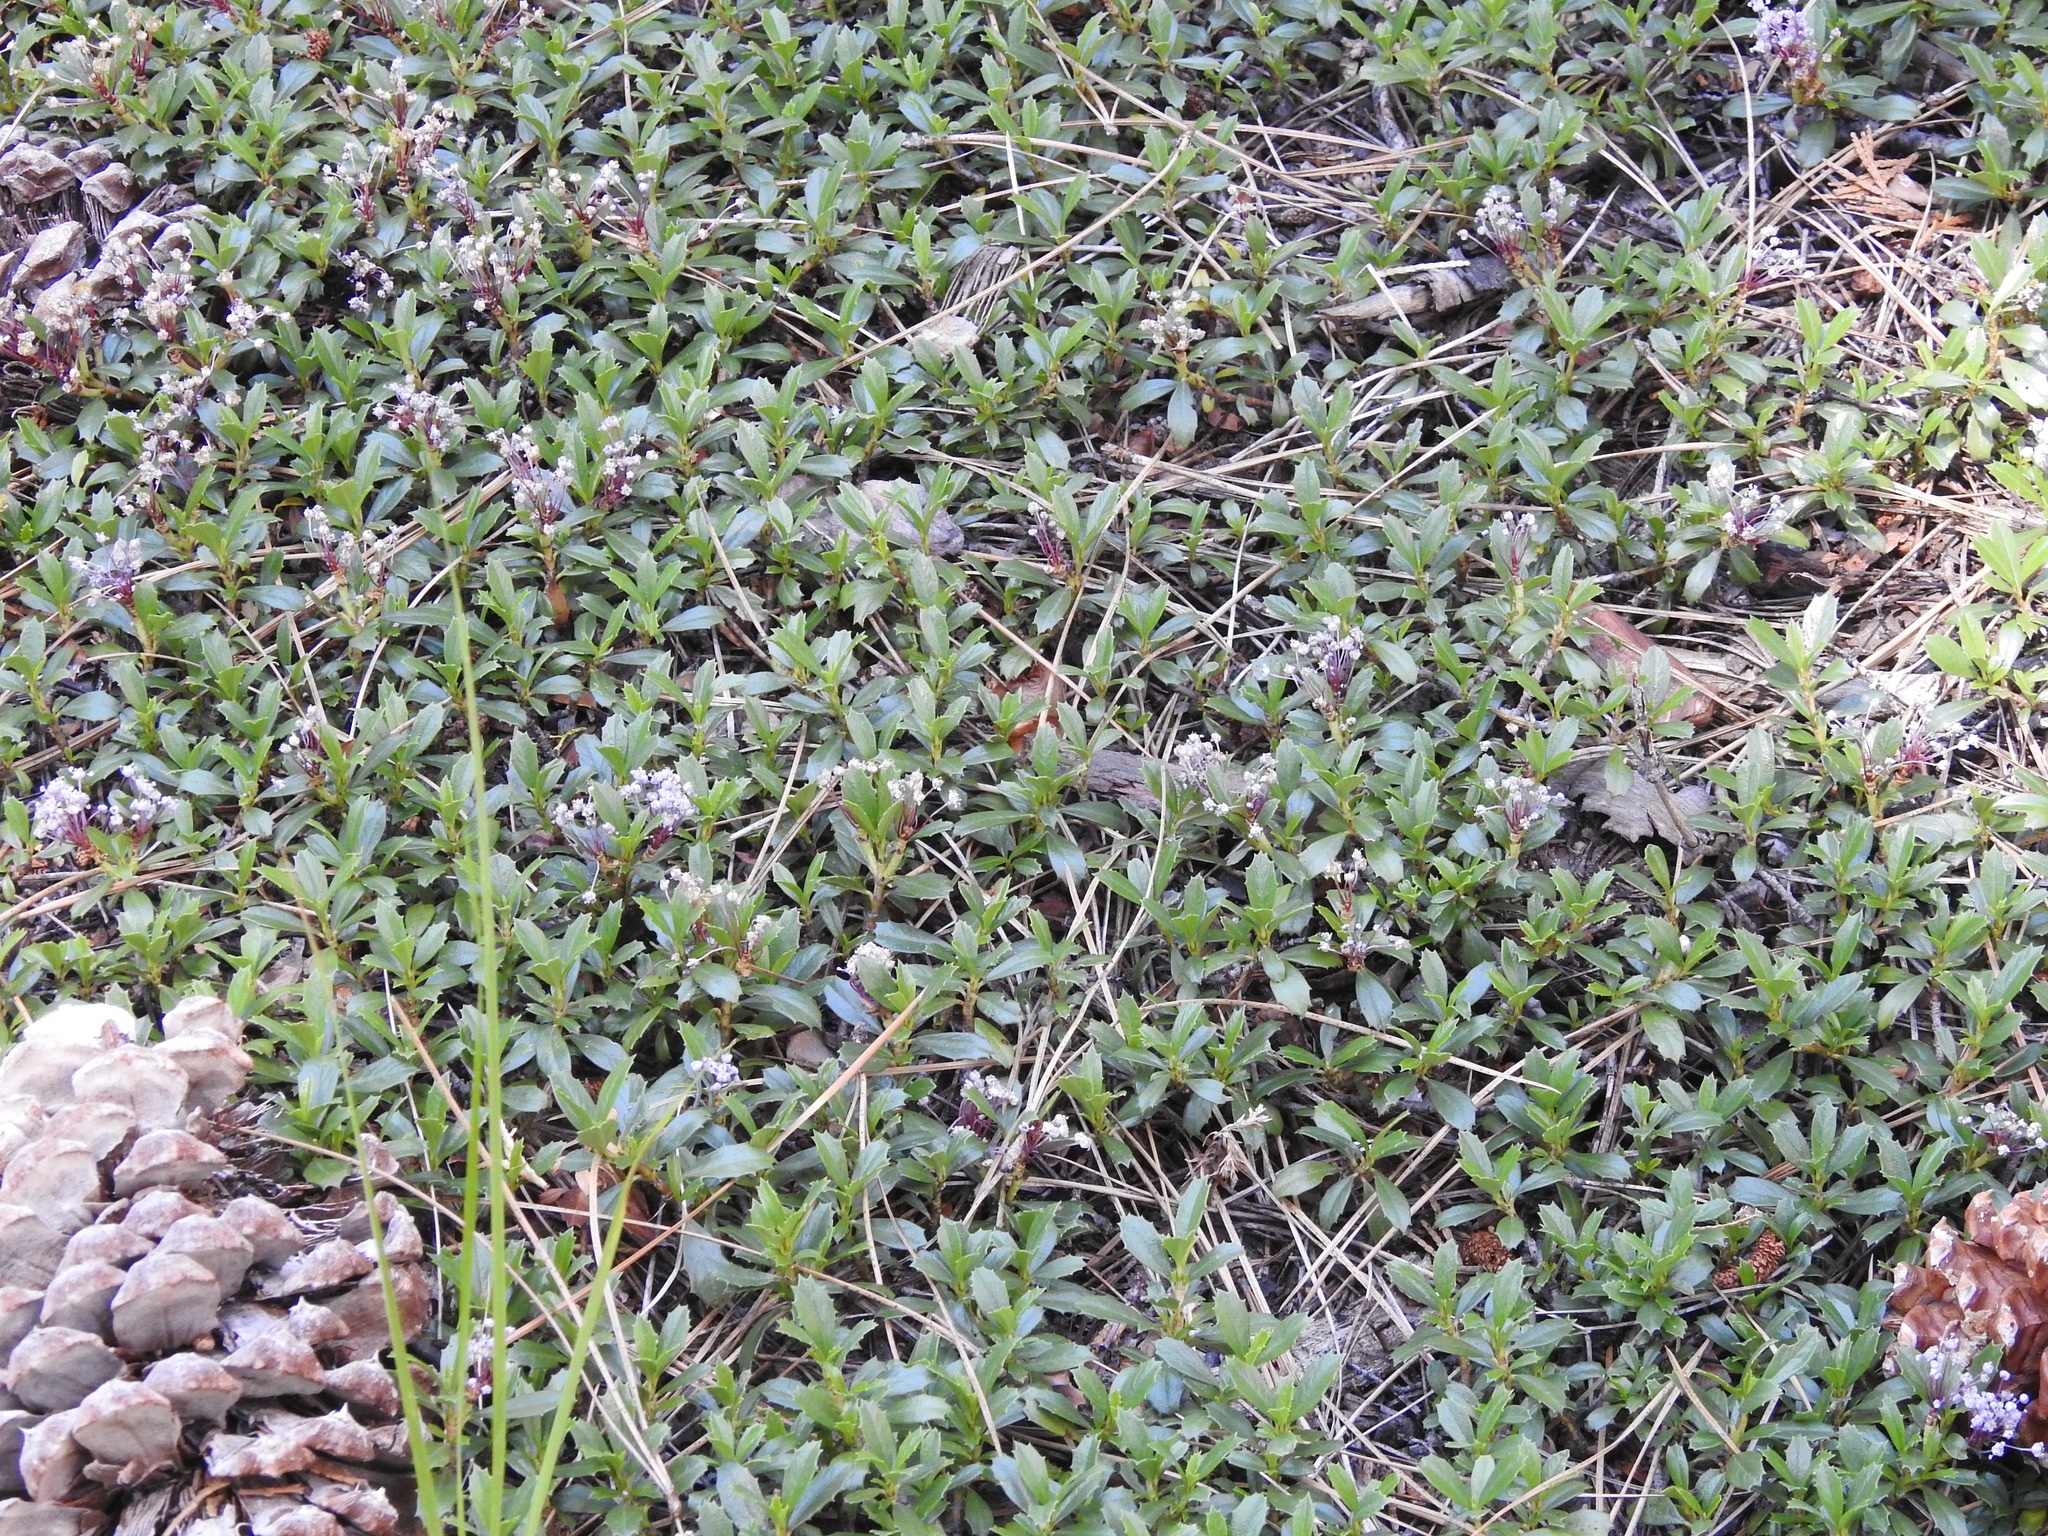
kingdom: Plantae
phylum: Tracheophyta
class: Magnoliopsida
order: Rosales
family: Rhamnaceae
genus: Ceanothus
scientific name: Ceanothus prostratus
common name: Mahala-mat
